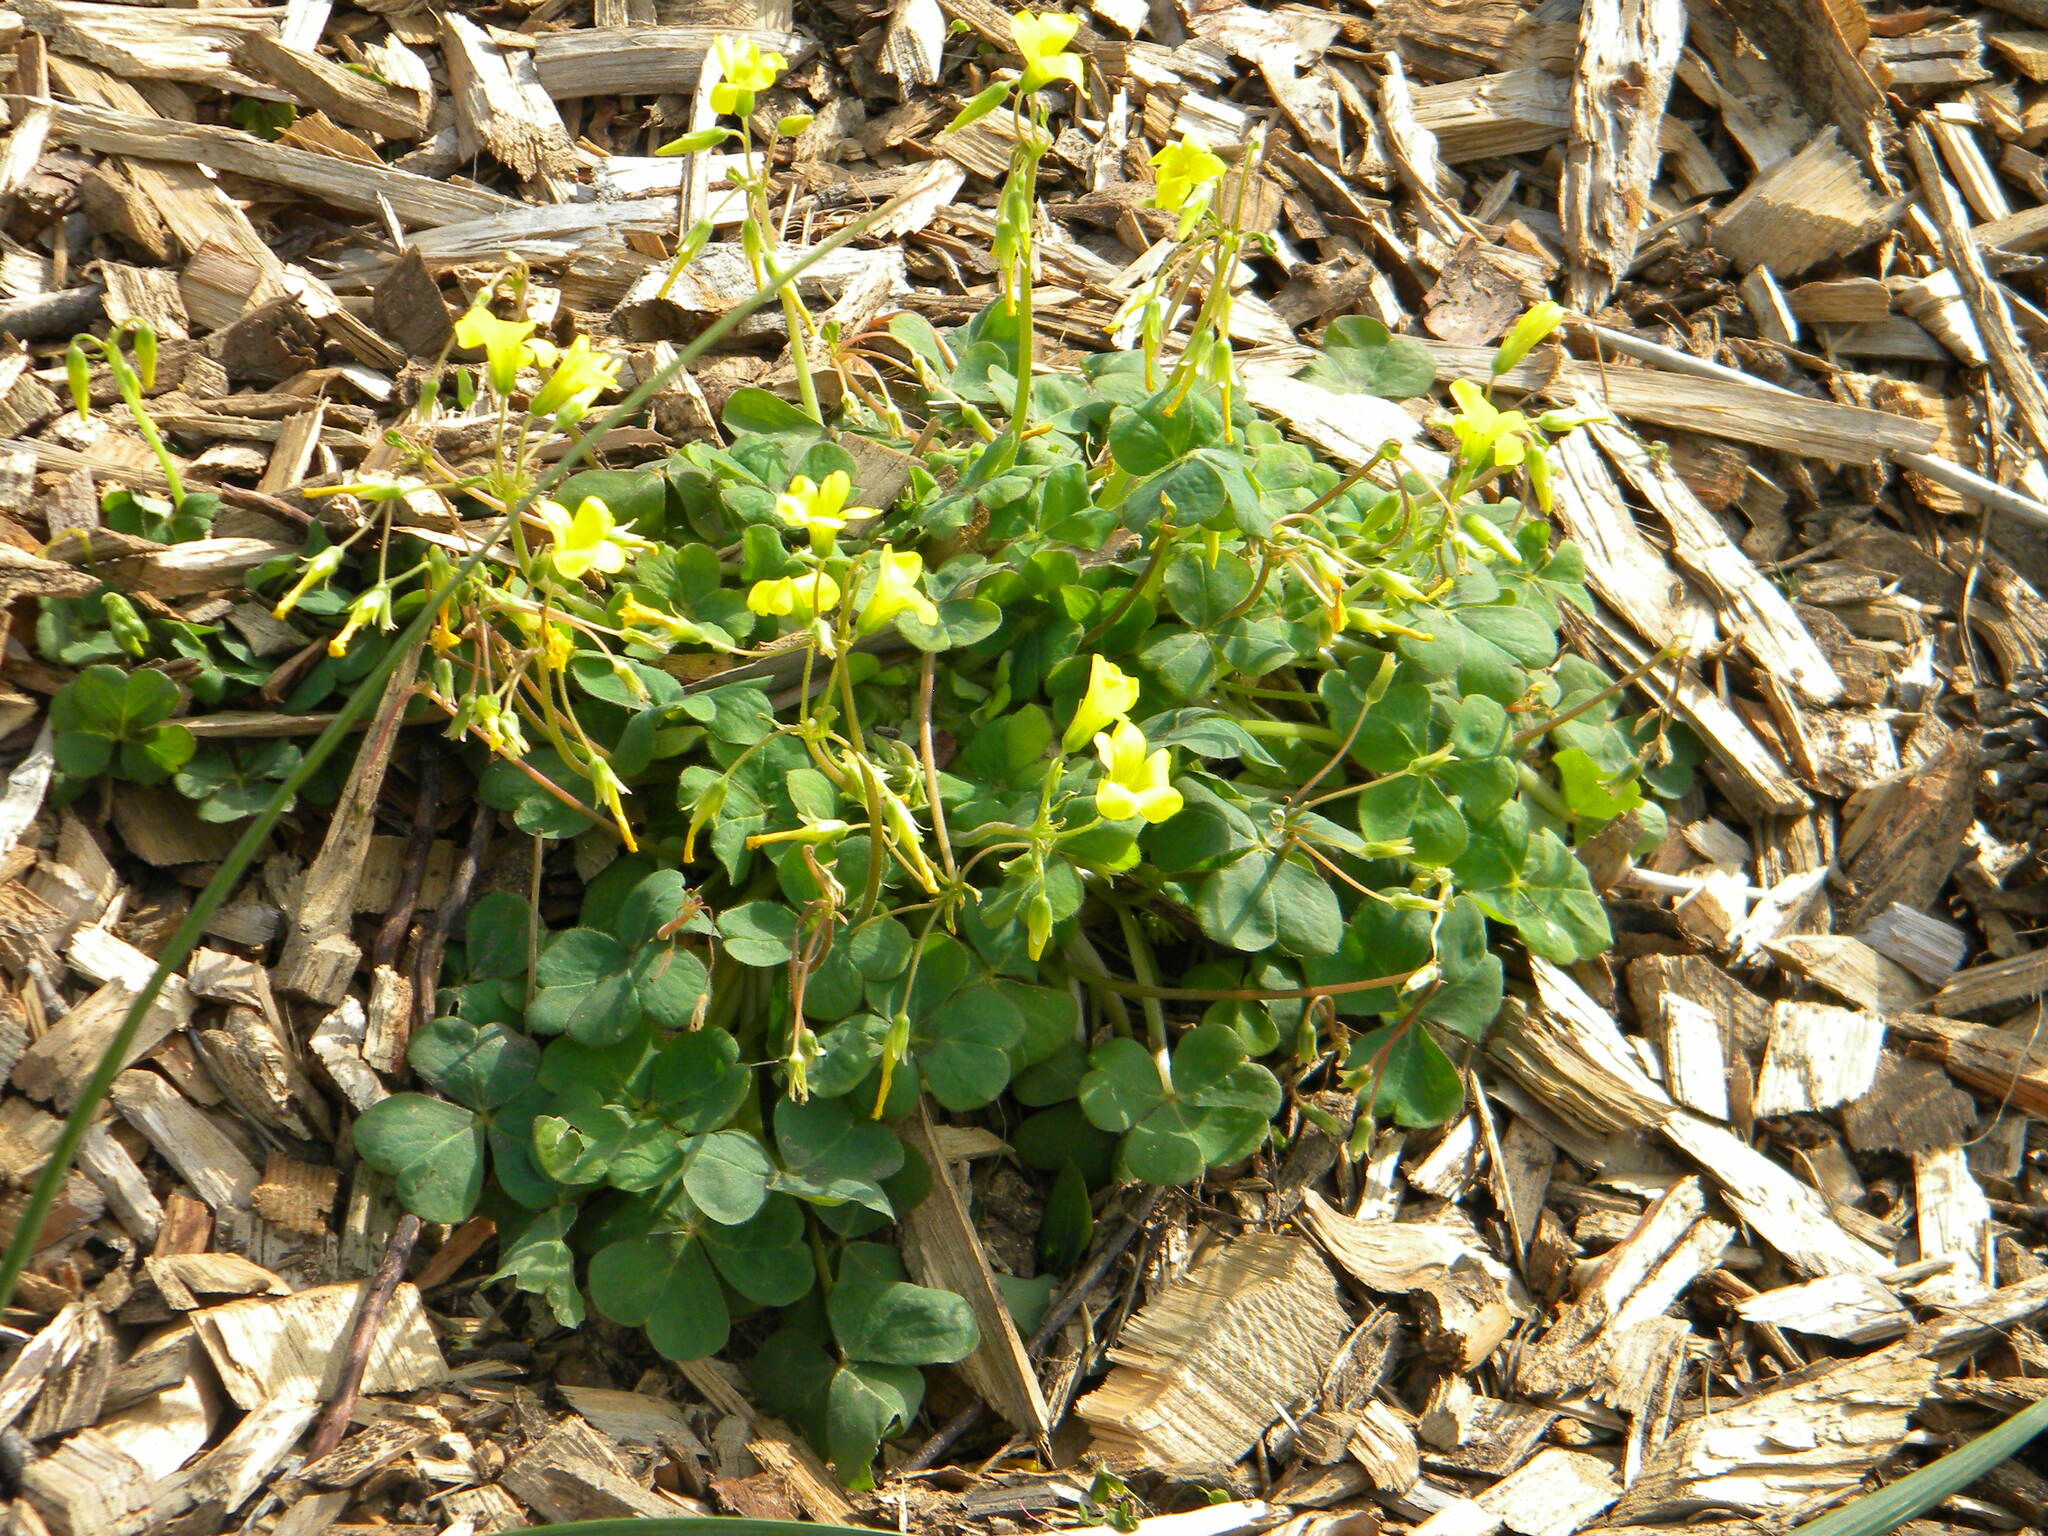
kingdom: Plantae
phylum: Tracheophyta
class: Magnoliopsida
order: Oxalidales
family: Oxalidaceae
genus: Oxalis
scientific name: Oxalis compressa
